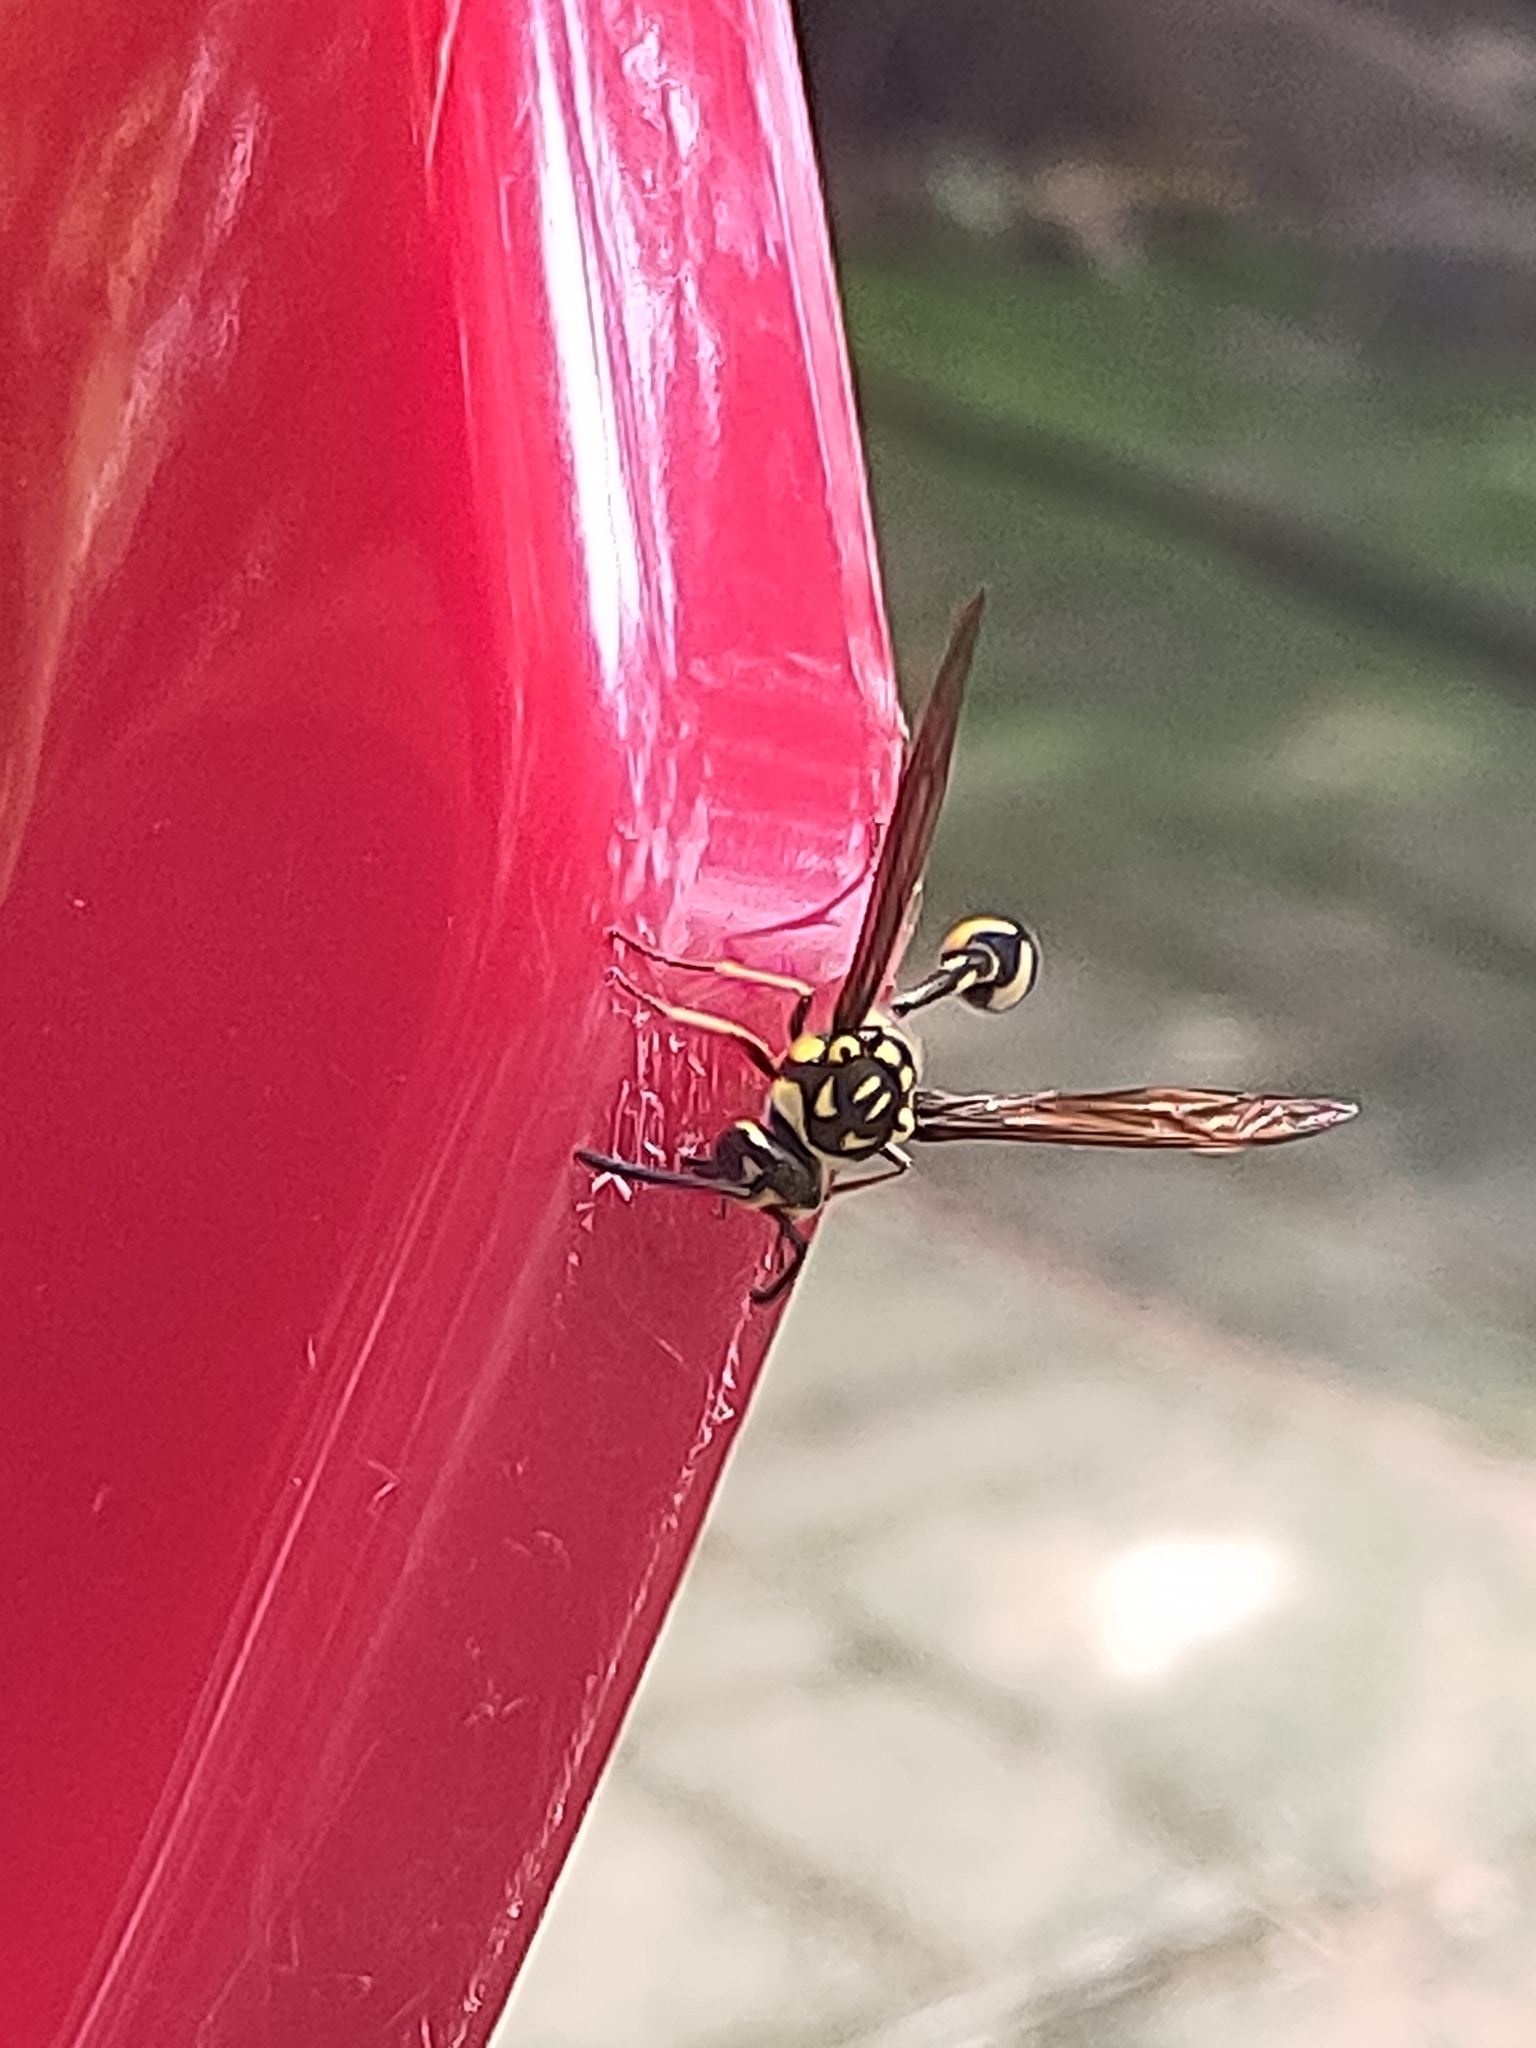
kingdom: Animalia
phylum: Arthropoda
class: Insecta
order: Hymenoptera
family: Eumenidae
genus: Phimenes
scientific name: Phimenes flavopictus
